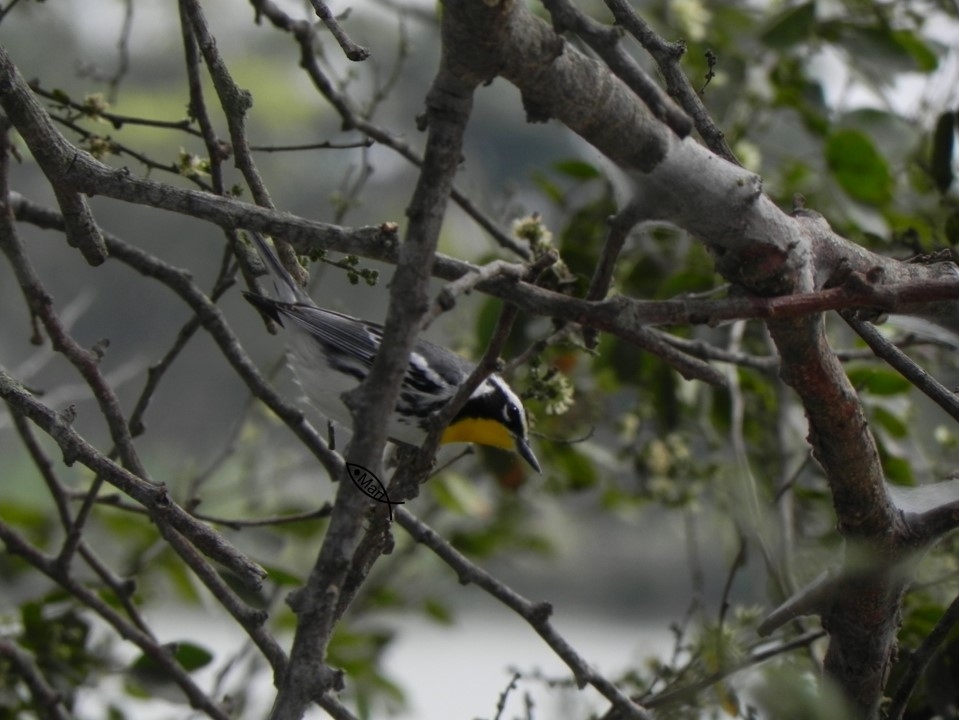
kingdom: Animalia
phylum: Chordata
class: Aves
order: Passeriformes
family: Parulidae
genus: Setophaga
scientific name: Setophaga dominica
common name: Yellow-throated warbler
